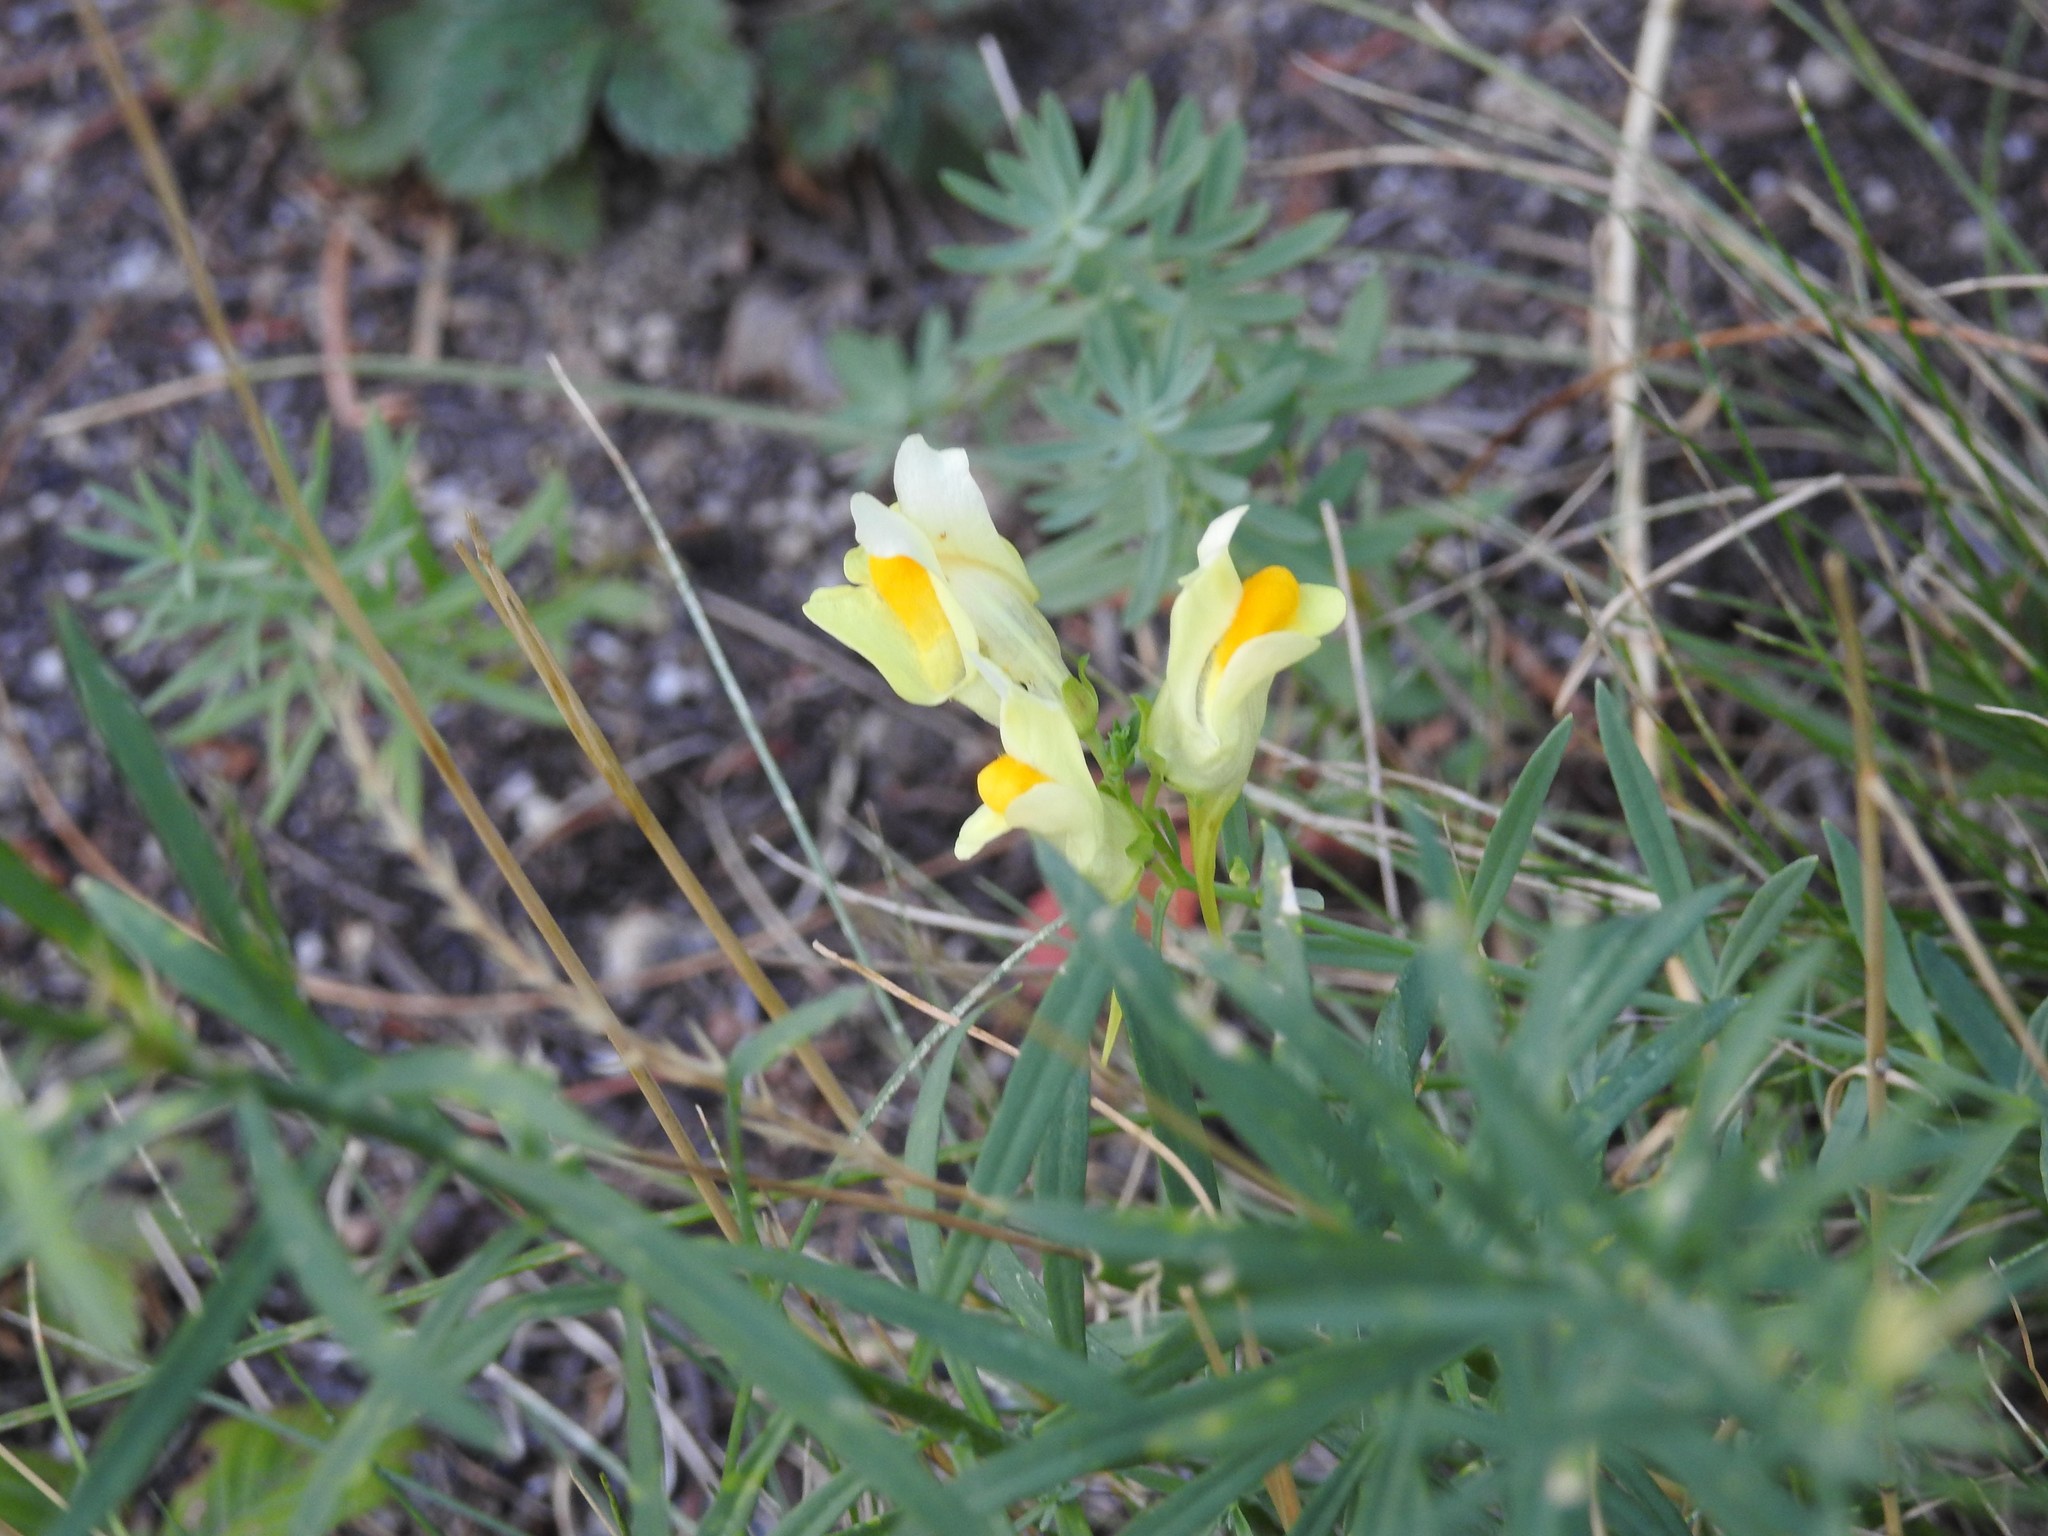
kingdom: Plantae
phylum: Tracheophyta
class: Magnoliopsida
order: Lamiales
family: Plantaginaceae
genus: Linaria
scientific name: Linaria vulgaris
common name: Butter and eggs
